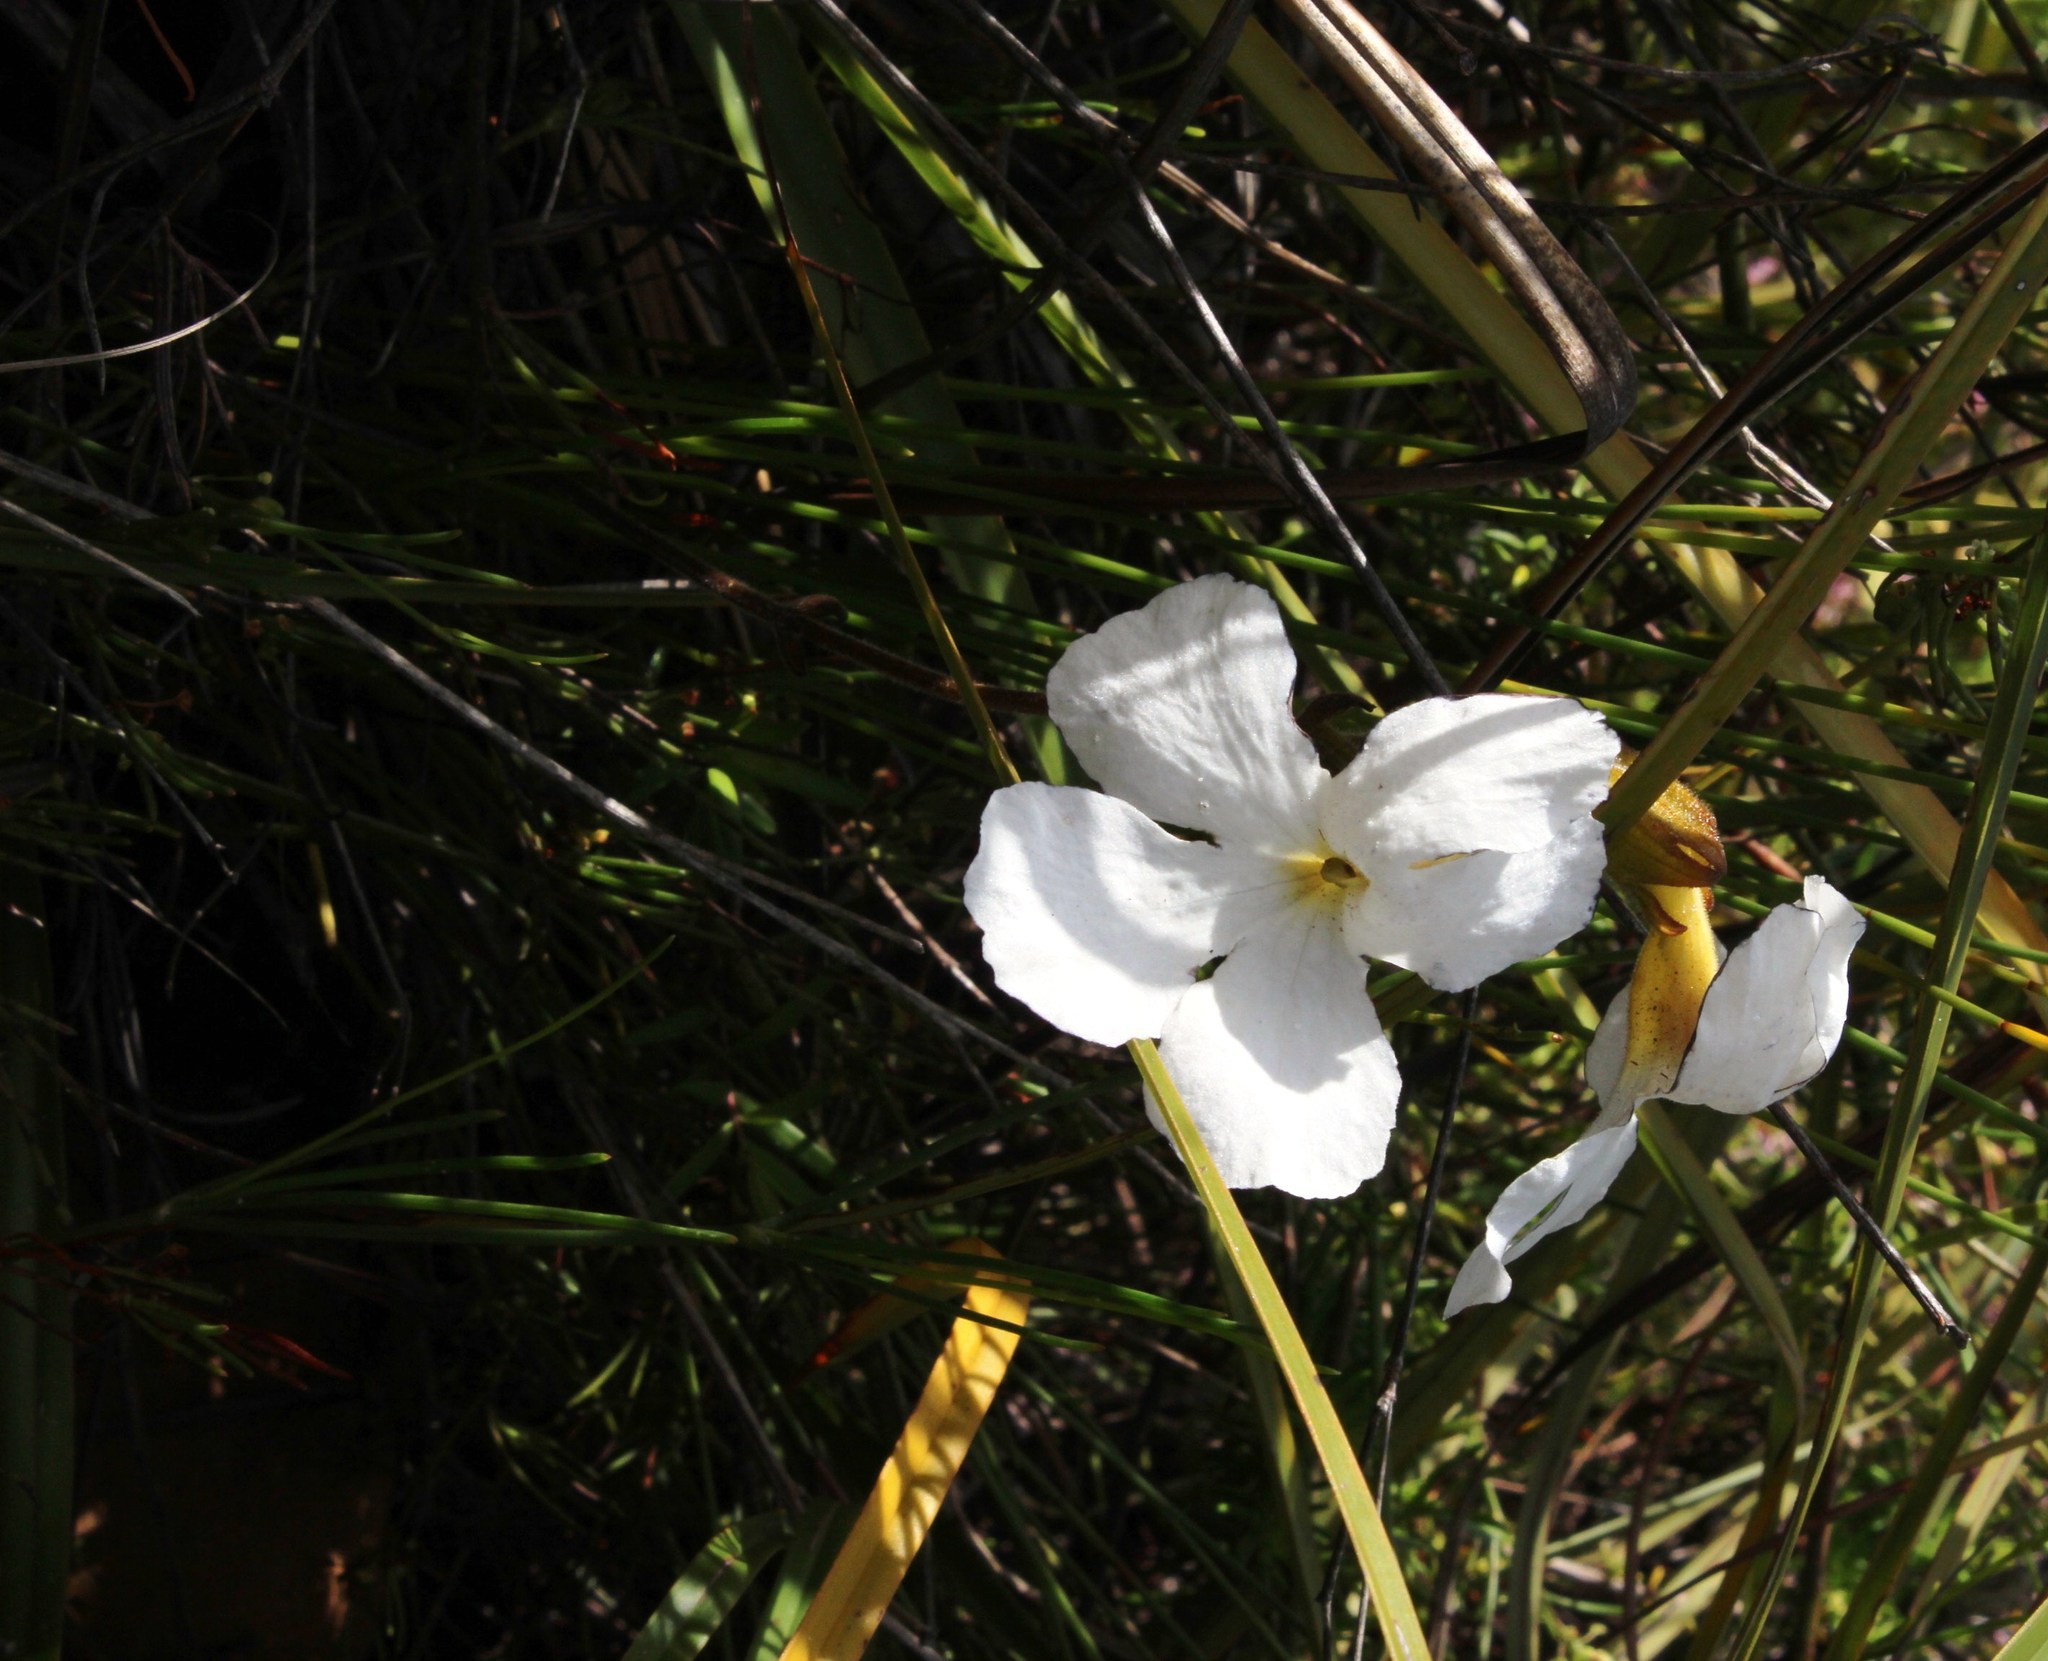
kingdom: Plantae
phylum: Tracheophyta
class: Magnoliopsida
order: Lamiales
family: Orobanchaceae
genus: Harveya
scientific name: Harveya capensis
